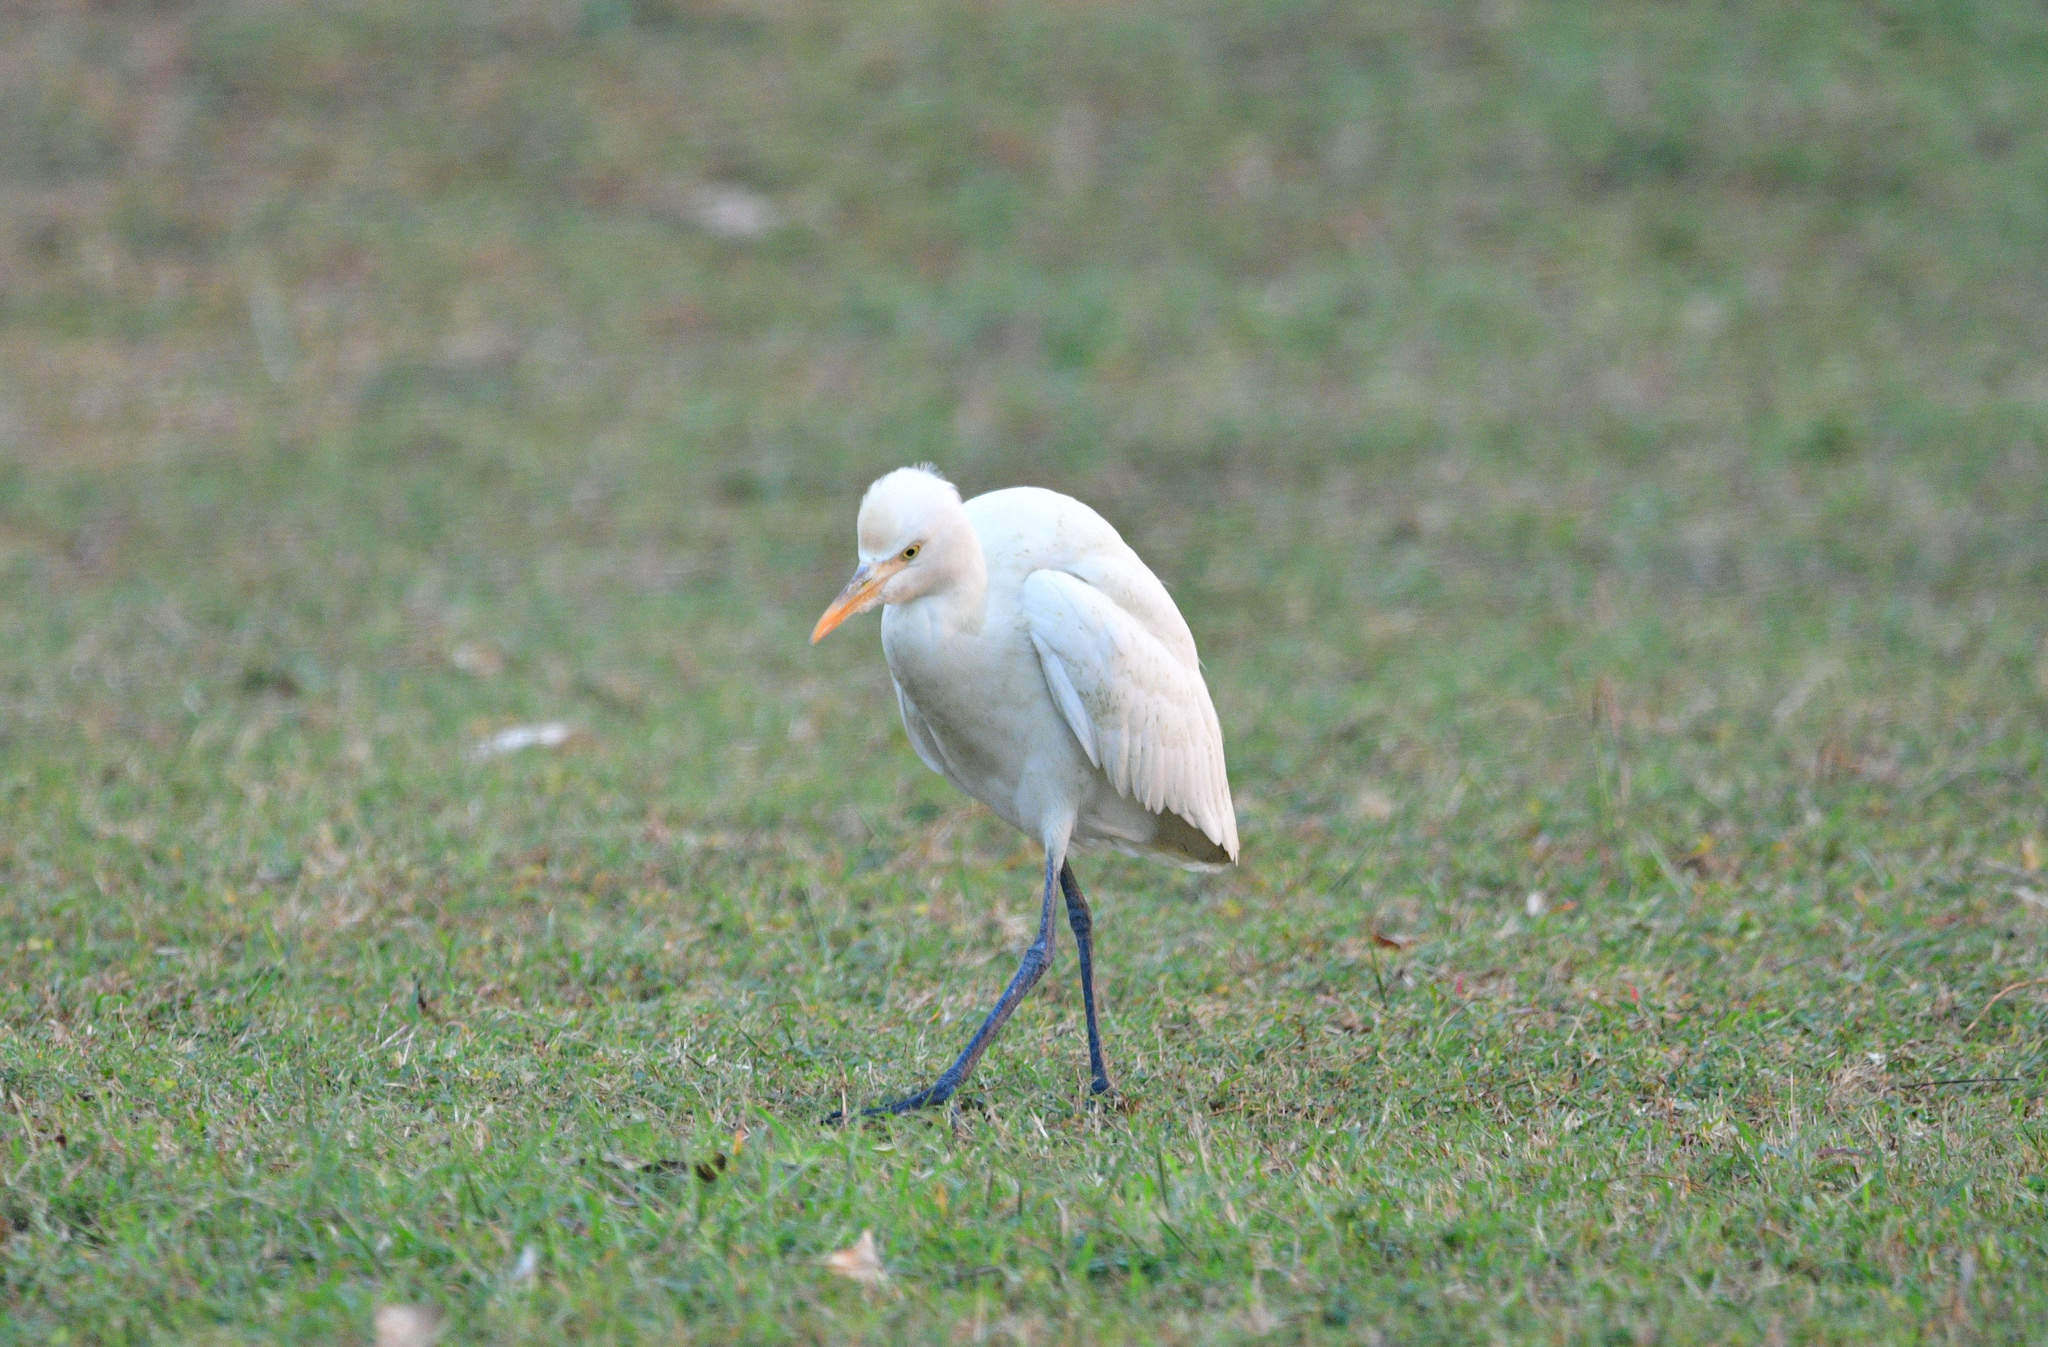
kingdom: Animalia
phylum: Chordata
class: Aves
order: Pelecaniformes
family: Ardeidae
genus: Bubulcus
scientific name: Bubulcus coromandus
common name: Eastern cattle egret
